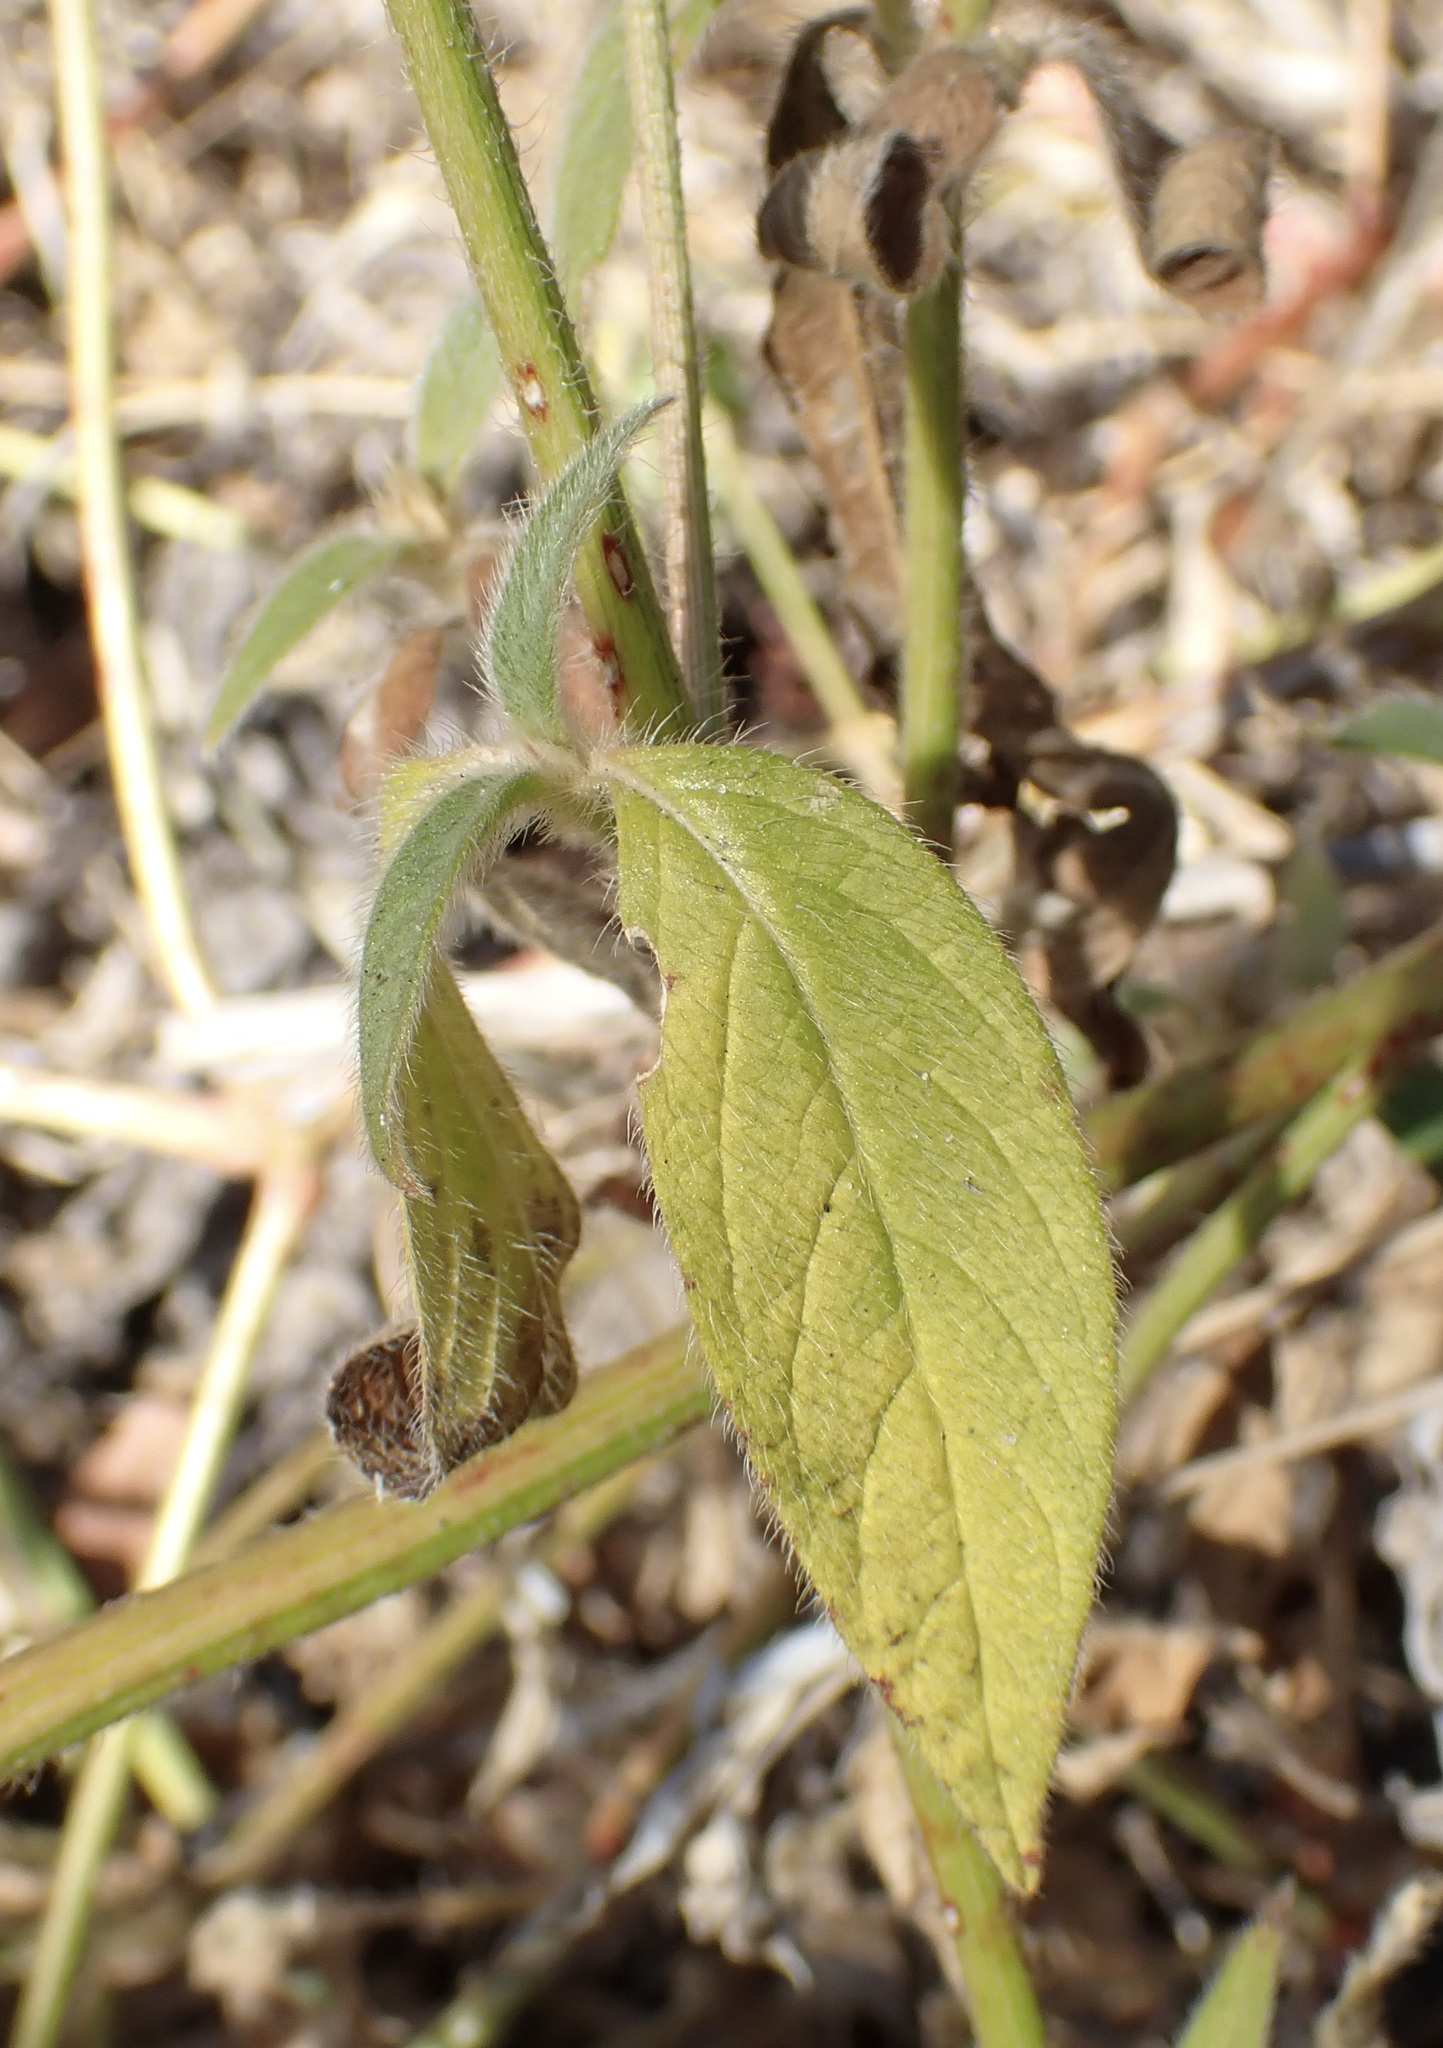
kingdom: Plantae
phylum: Tracheophyta
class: Magnoliopsida
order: Caryophyllales
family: Amaranthaceae
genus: Cyathula
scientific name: Cyathula orthacantha
